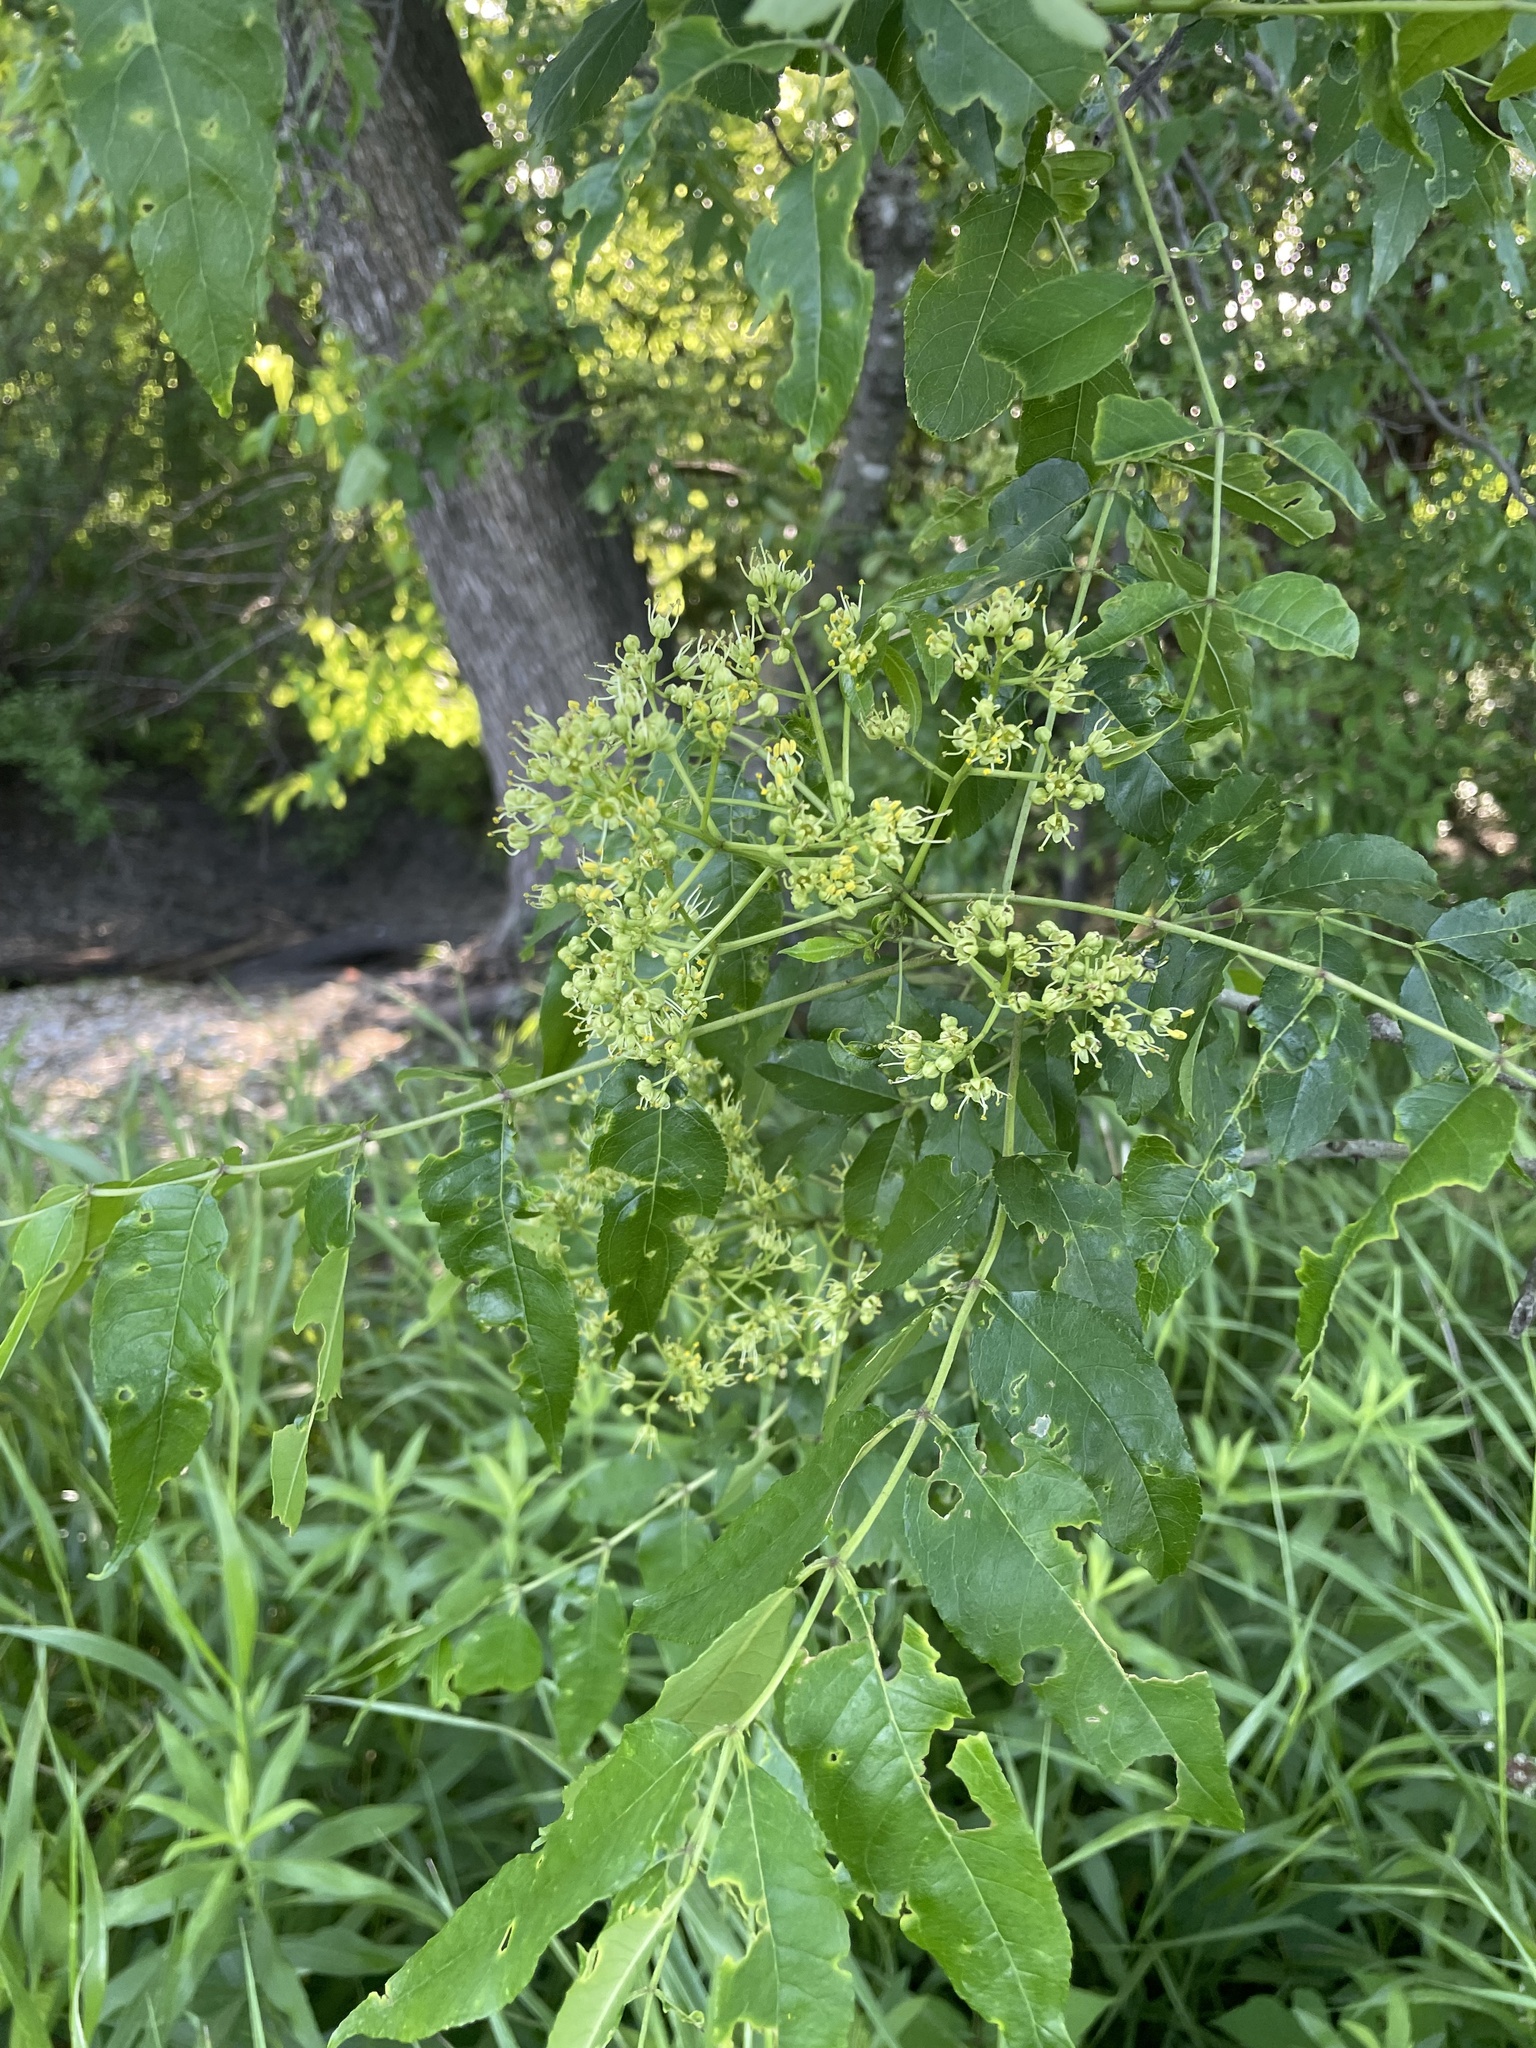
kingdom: Plantae
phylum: Tracheophyta
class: Magnoliopsida
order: Sapindales
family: Rutaceae
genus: Zanthoxylum
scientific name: Zanthoxylum clava-herculis
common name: Hercules'-club
